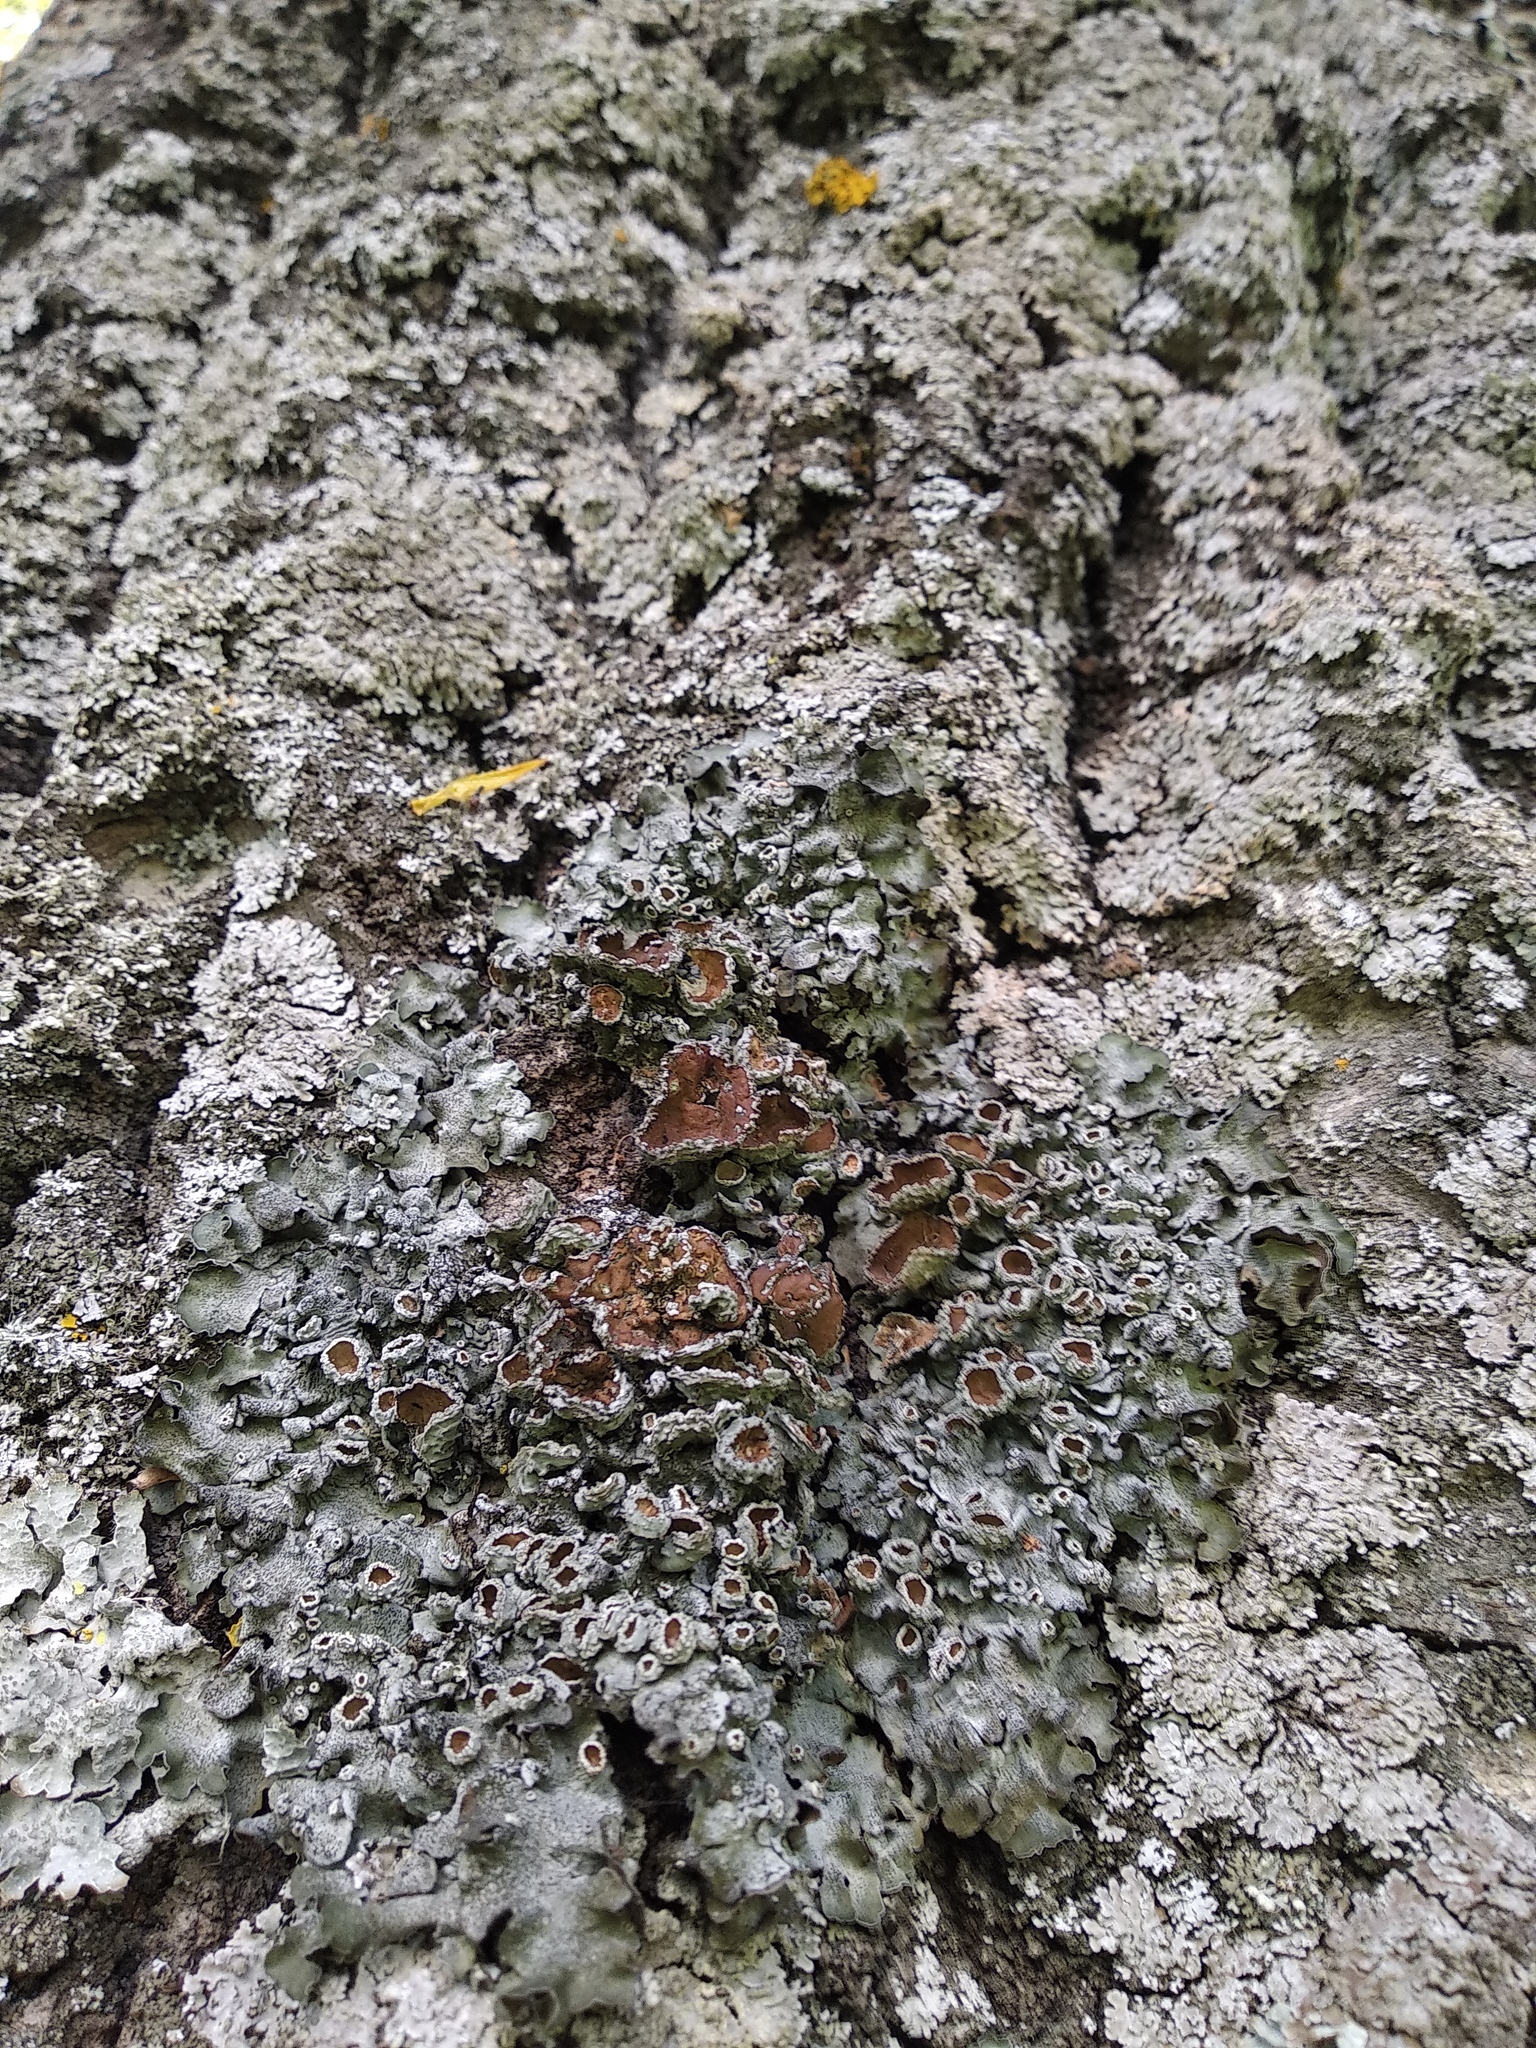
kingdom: Fungi
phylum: Ascomycota
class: Lecanoromycetes
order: Lecanorales
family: Parmeliaceae
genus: Pleurosticta
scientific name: Pleurosticta acetabulum
